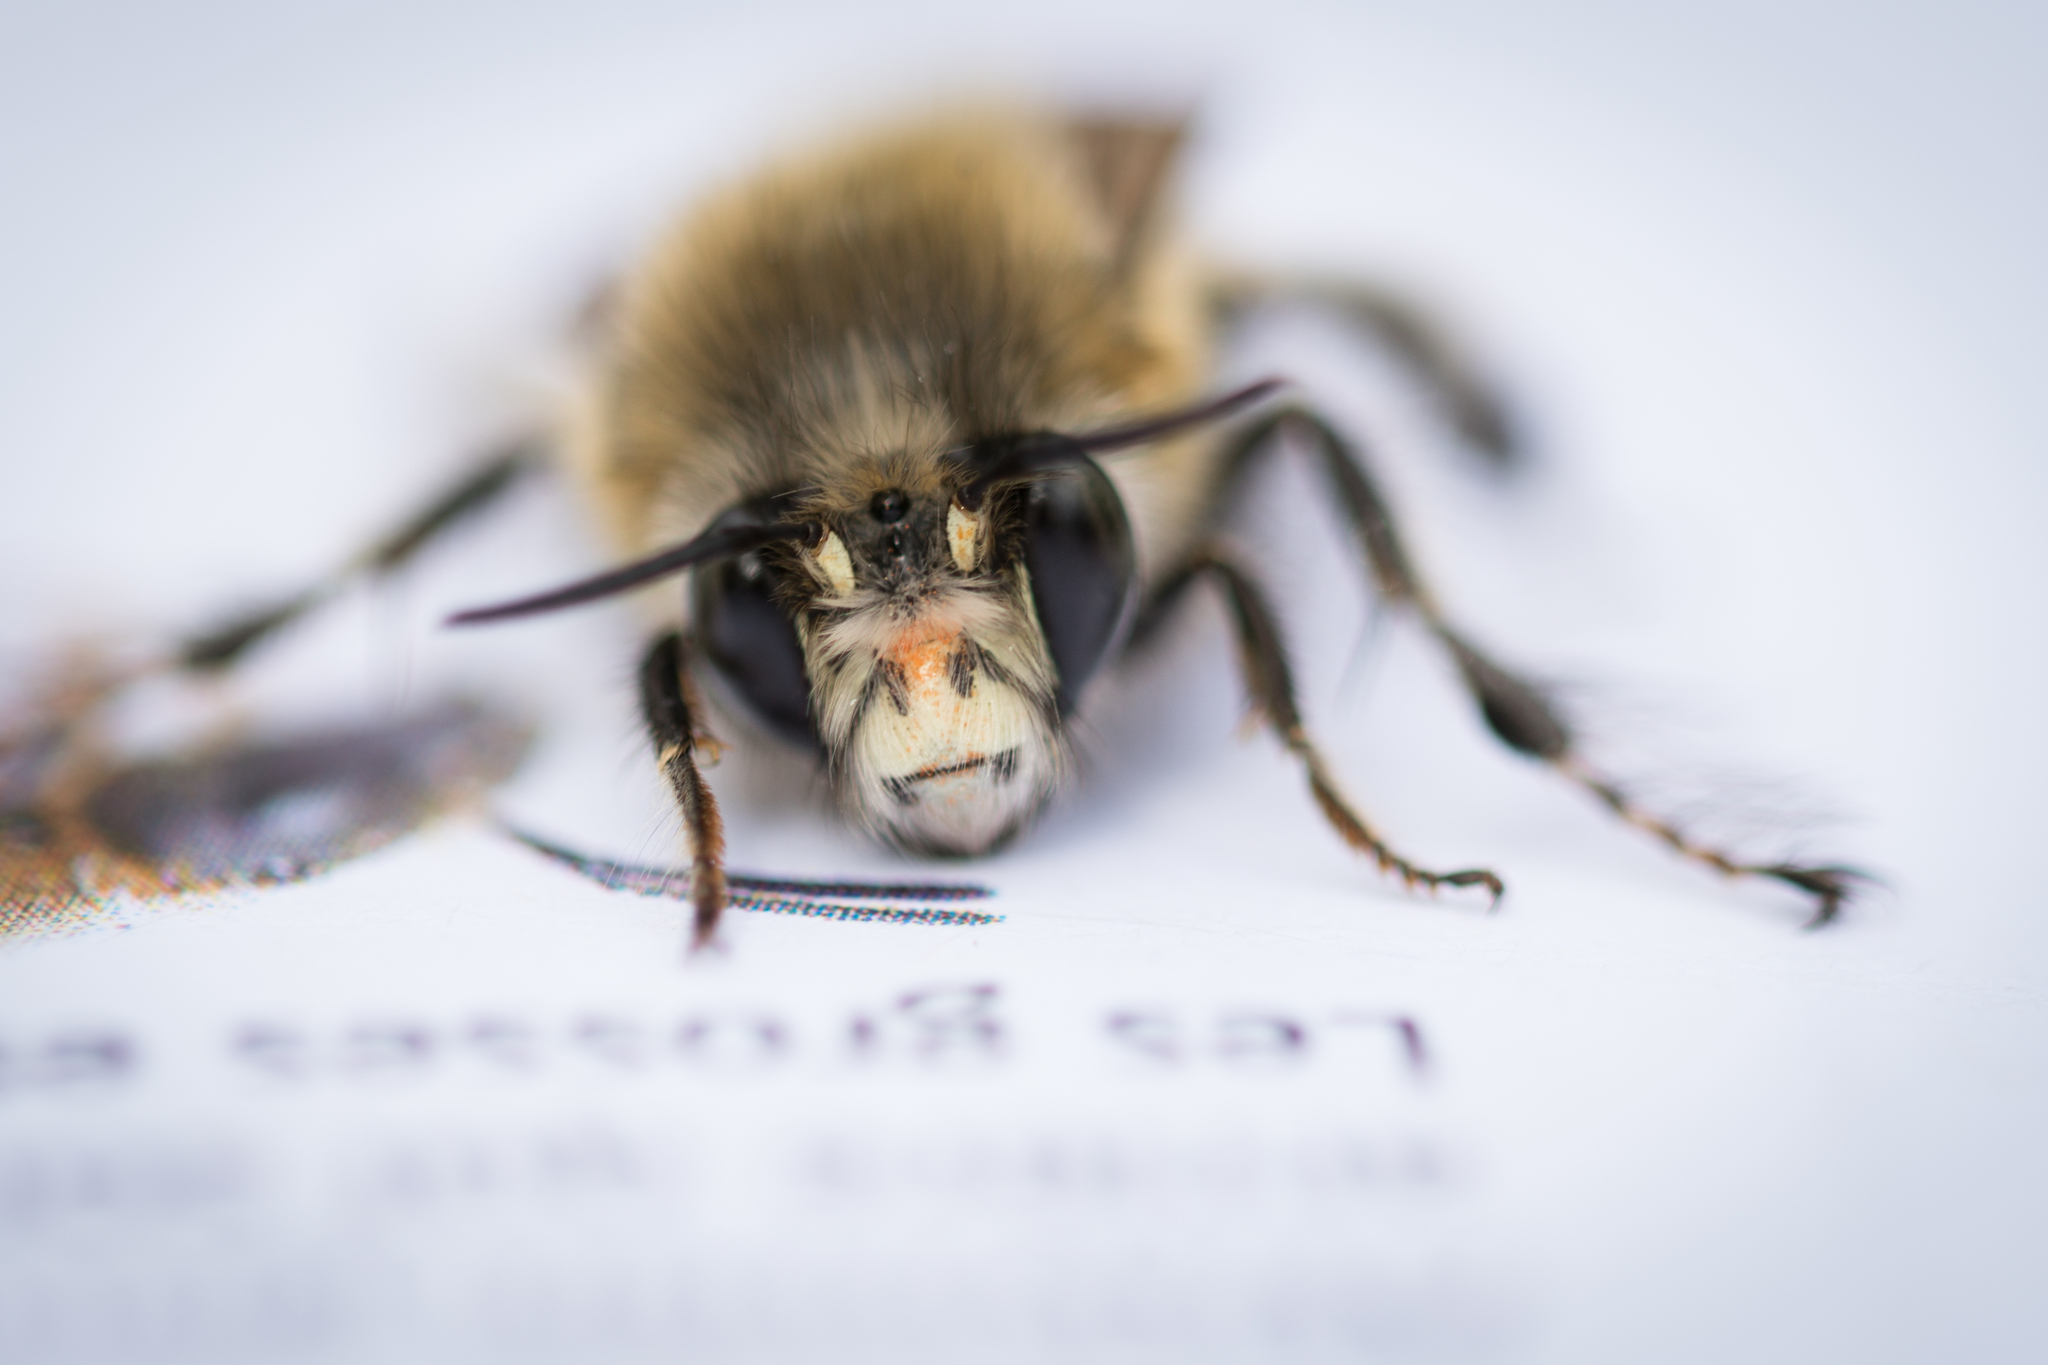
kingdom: Animalia
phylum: Arthropoda
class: Insecta
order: Hymenoptera
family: Apidae
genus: Anthophora
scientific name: Anthophora plumipes
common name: Hairy-footed flower bee
